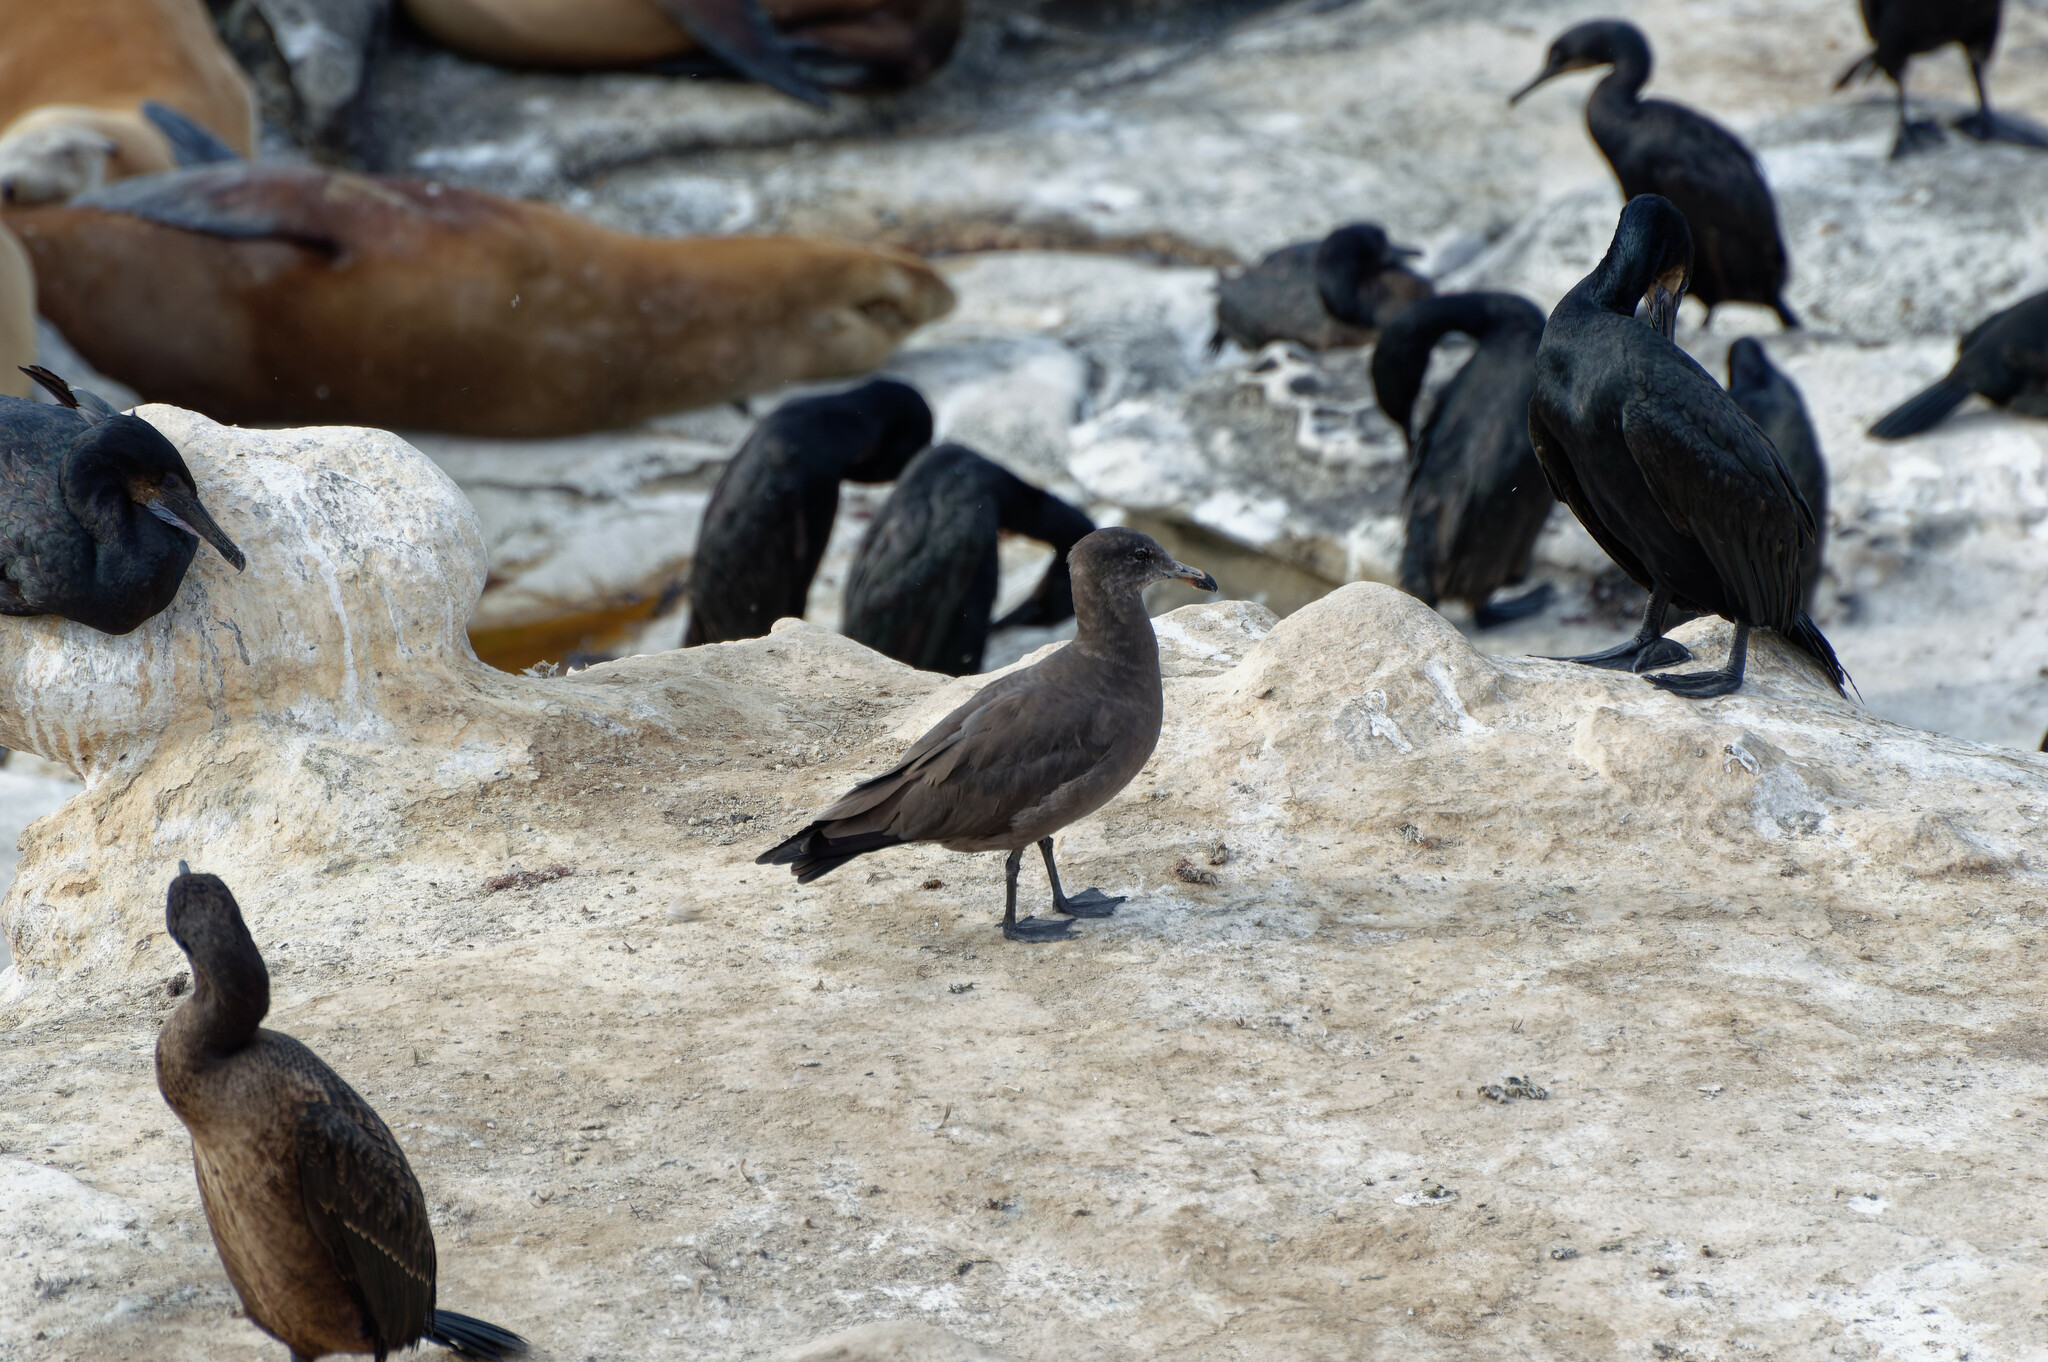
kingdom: Animalia
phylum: Chordata
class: Aves
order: Charadriiformes
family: Laridae
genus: Larus
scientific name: Larus heermanni
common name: Heermann's gull
